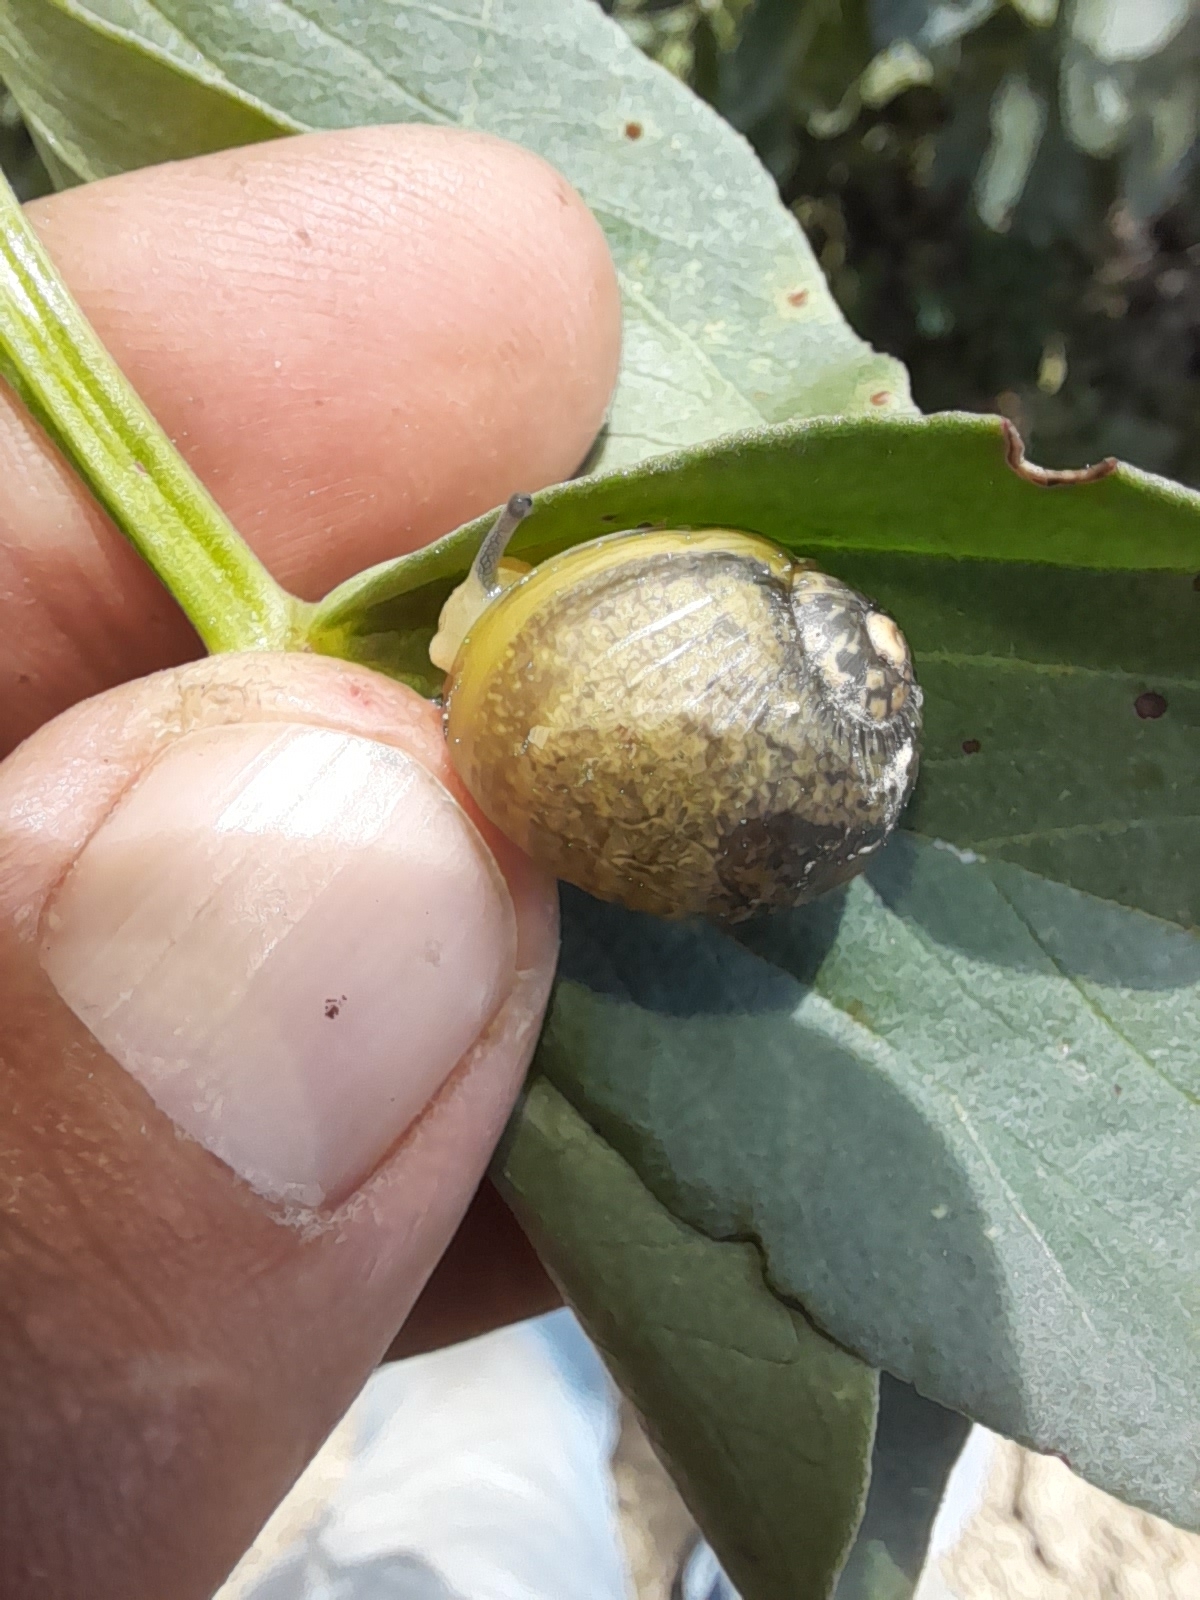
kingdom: Animalia
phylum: Mollusca
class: Gastropoda
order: Stylommatophora
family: Helicidae
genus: Cantareus
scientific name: Cantareus apertus
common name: Green gardensnail
